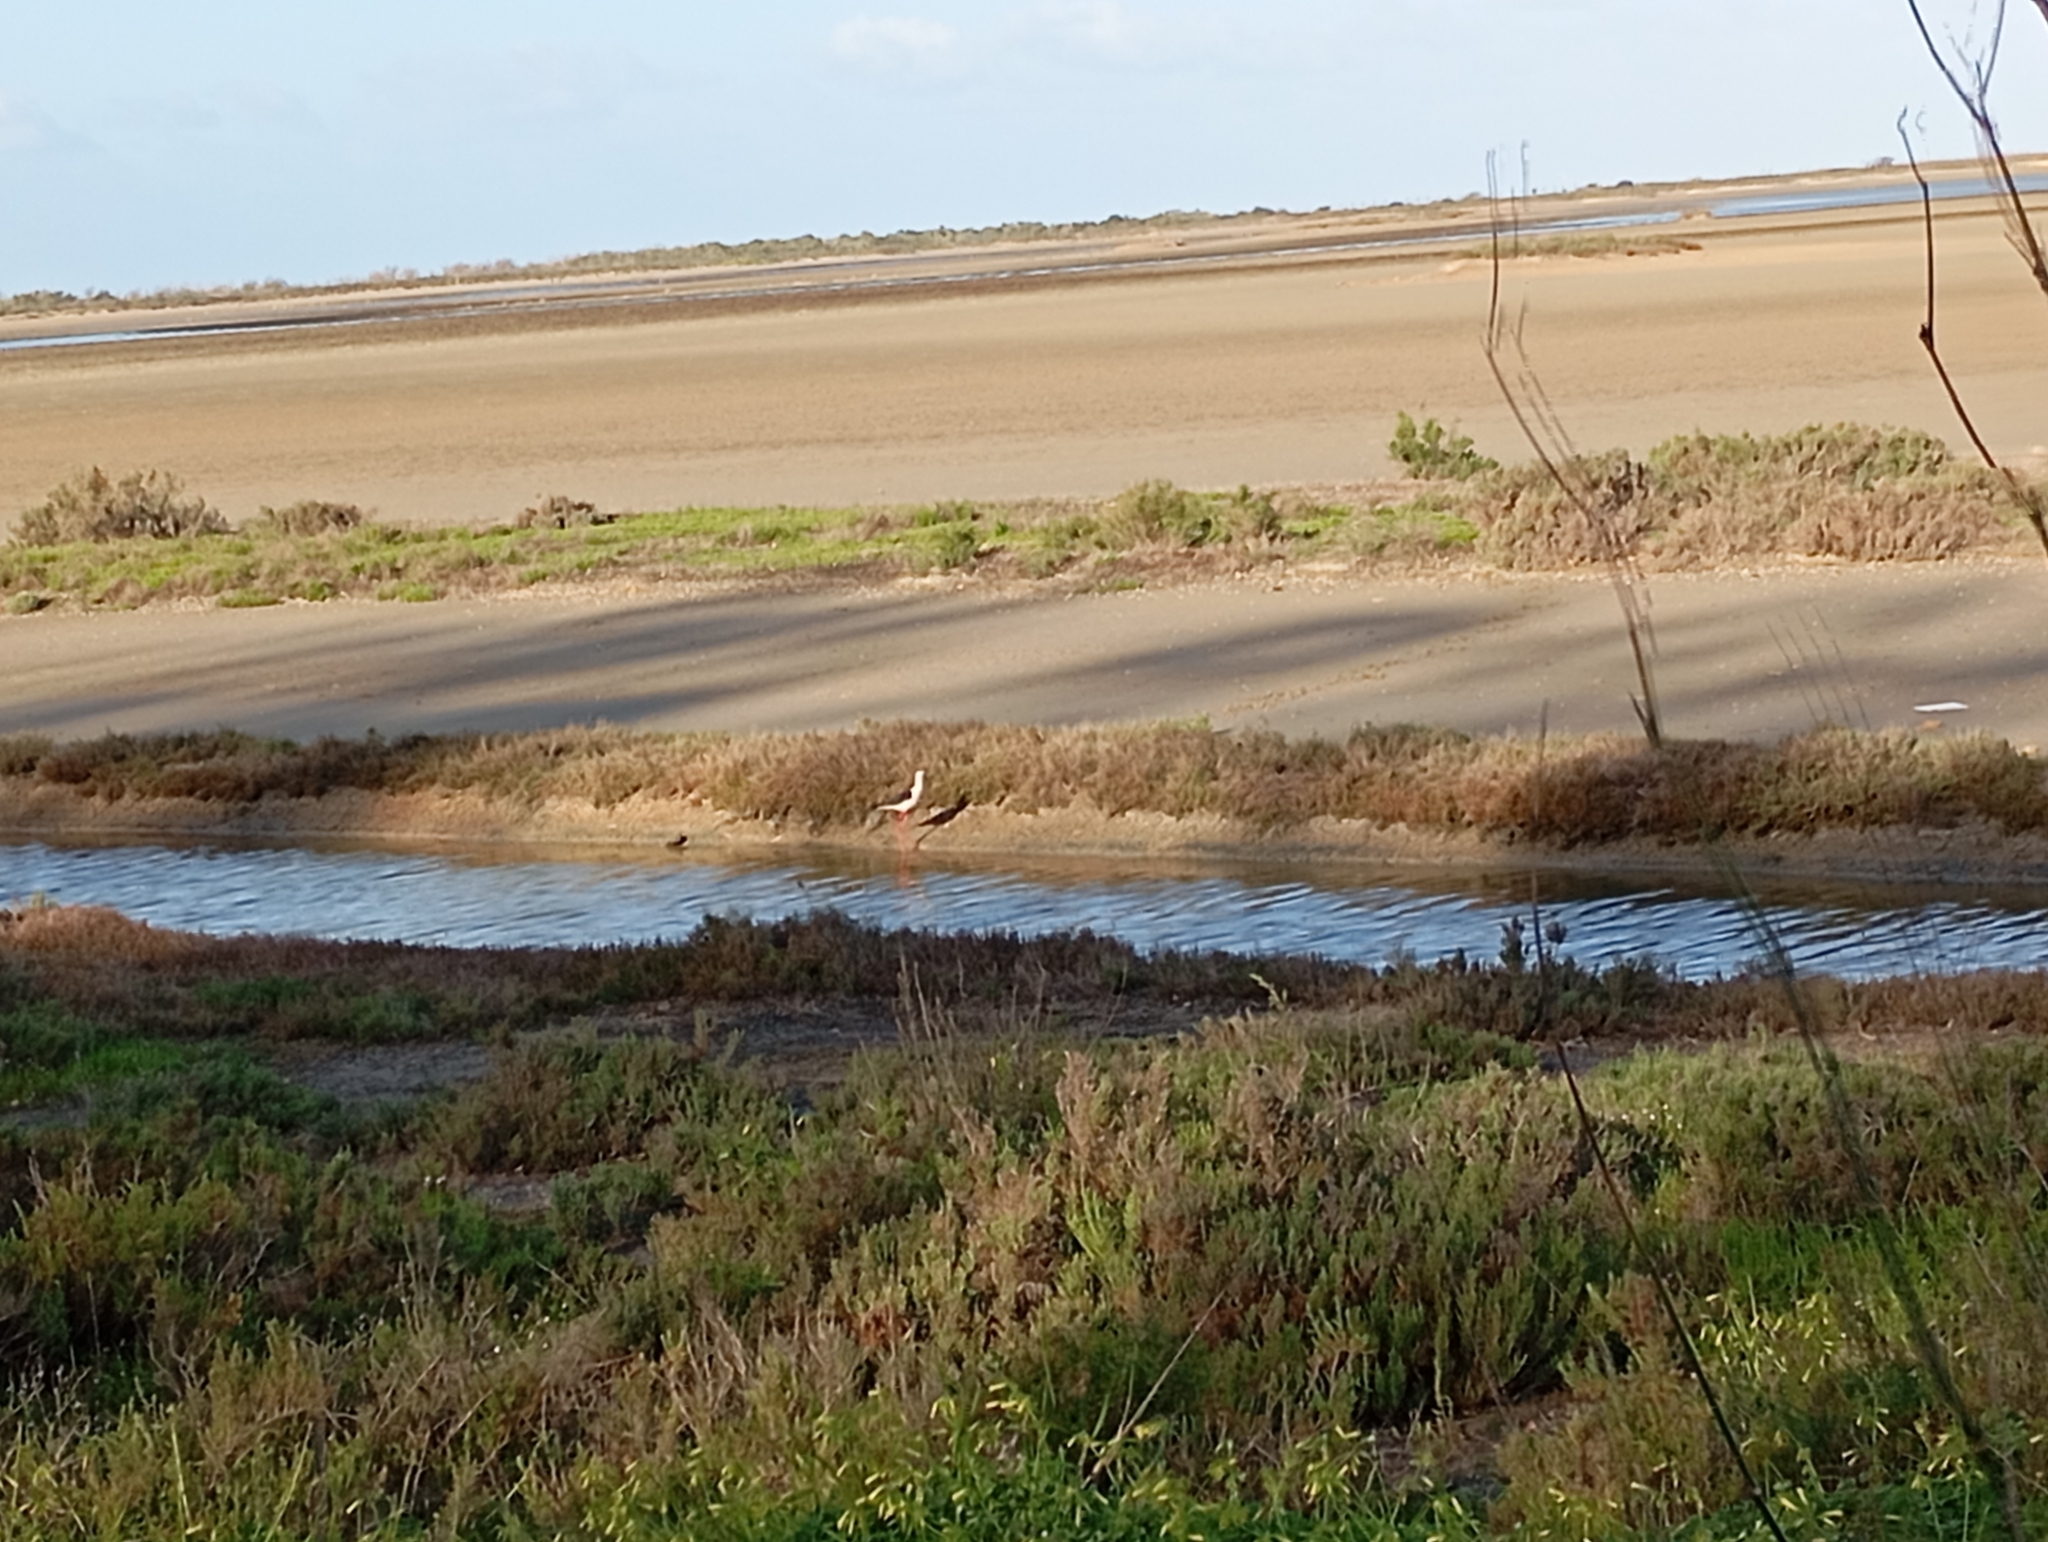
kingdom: Animalia
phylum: Chordata
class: Aves
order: Charadriiformes
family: Recurvirostridae
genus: Himantopus
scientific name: Himantopus himantopus
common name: Black-winged stilt
